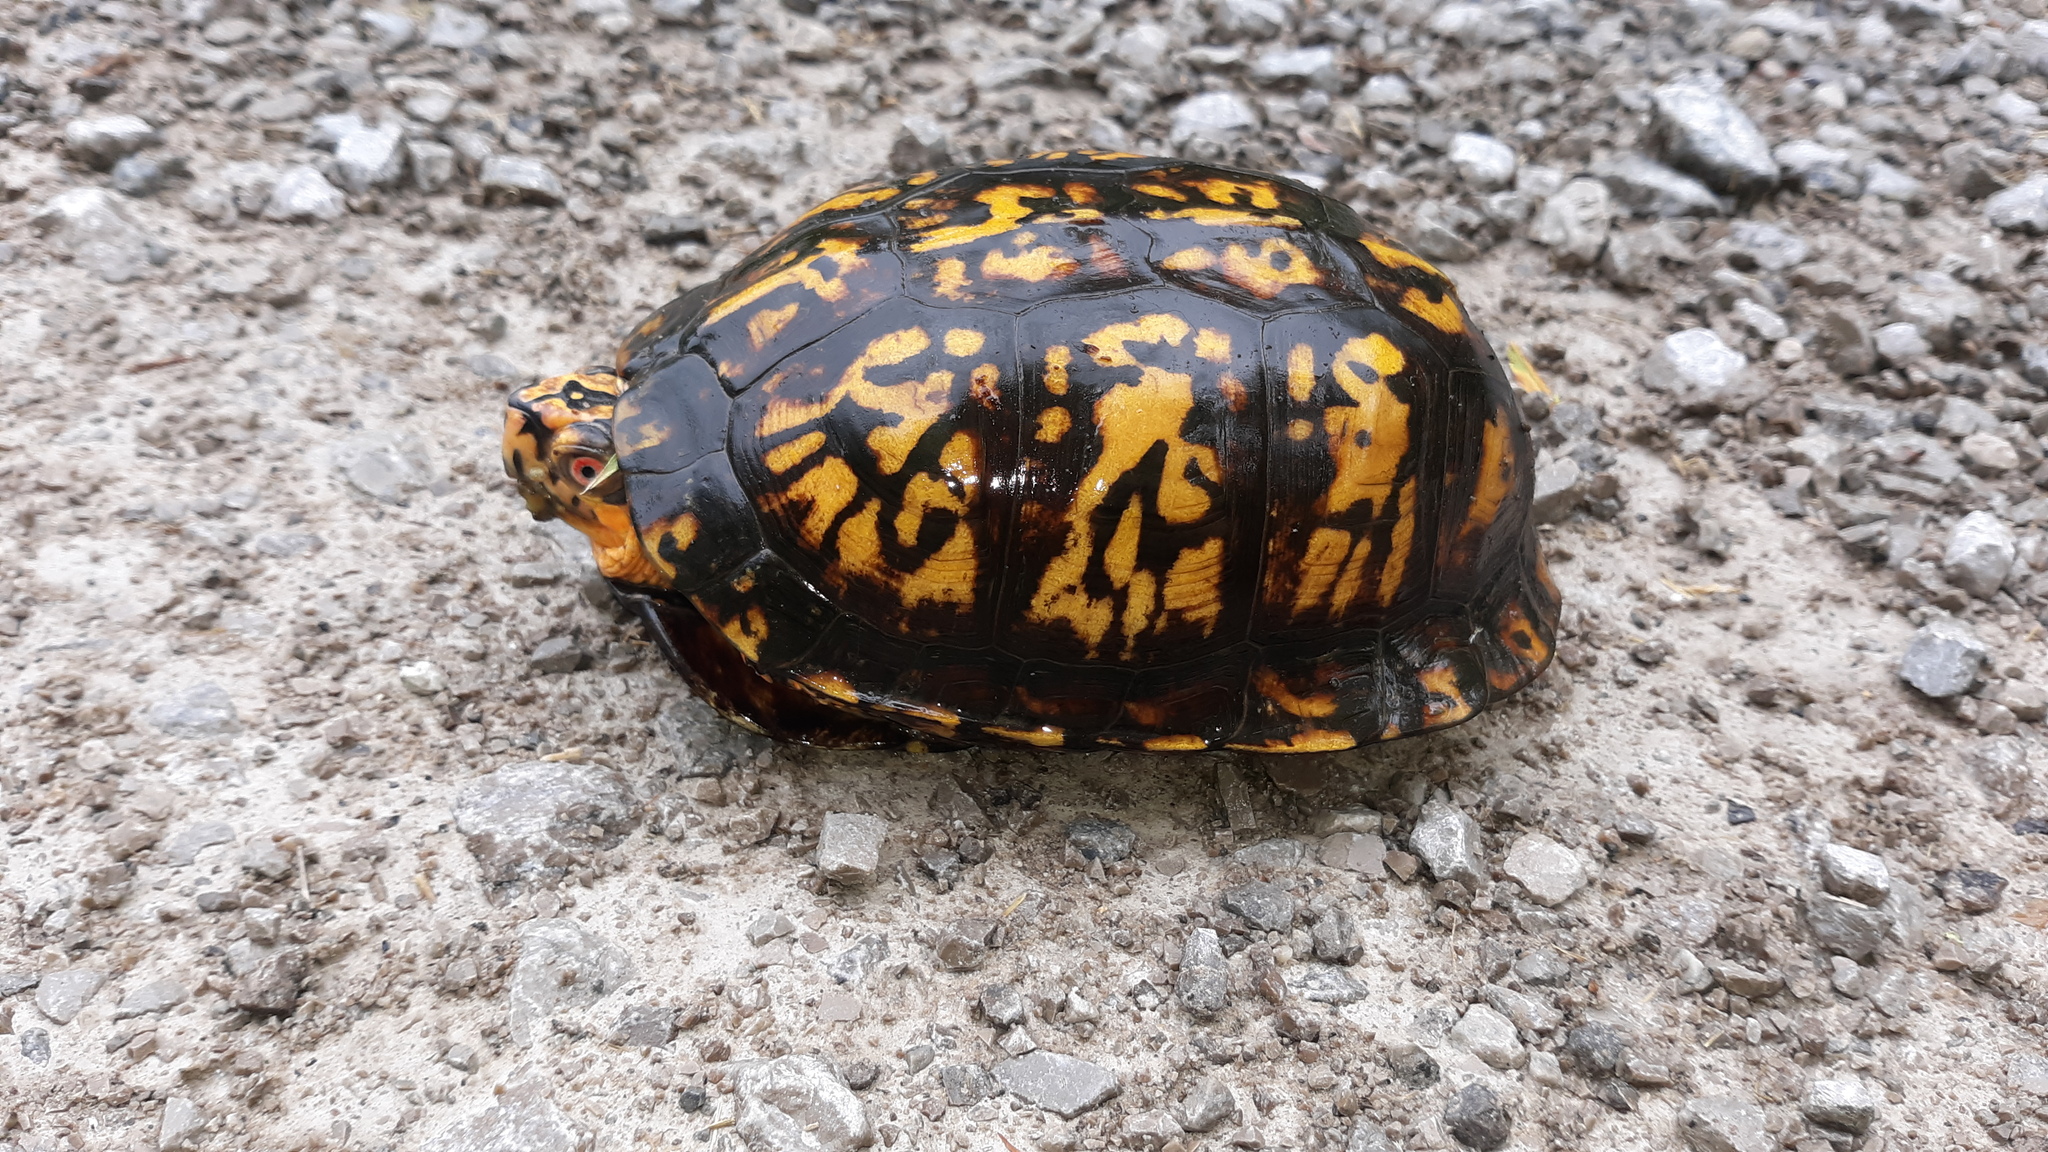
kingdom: Animalia
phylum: Chordata
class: Testudines
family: Emydidae
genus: Terrapene
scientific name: Terrapene carolina
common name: Common box turtle
